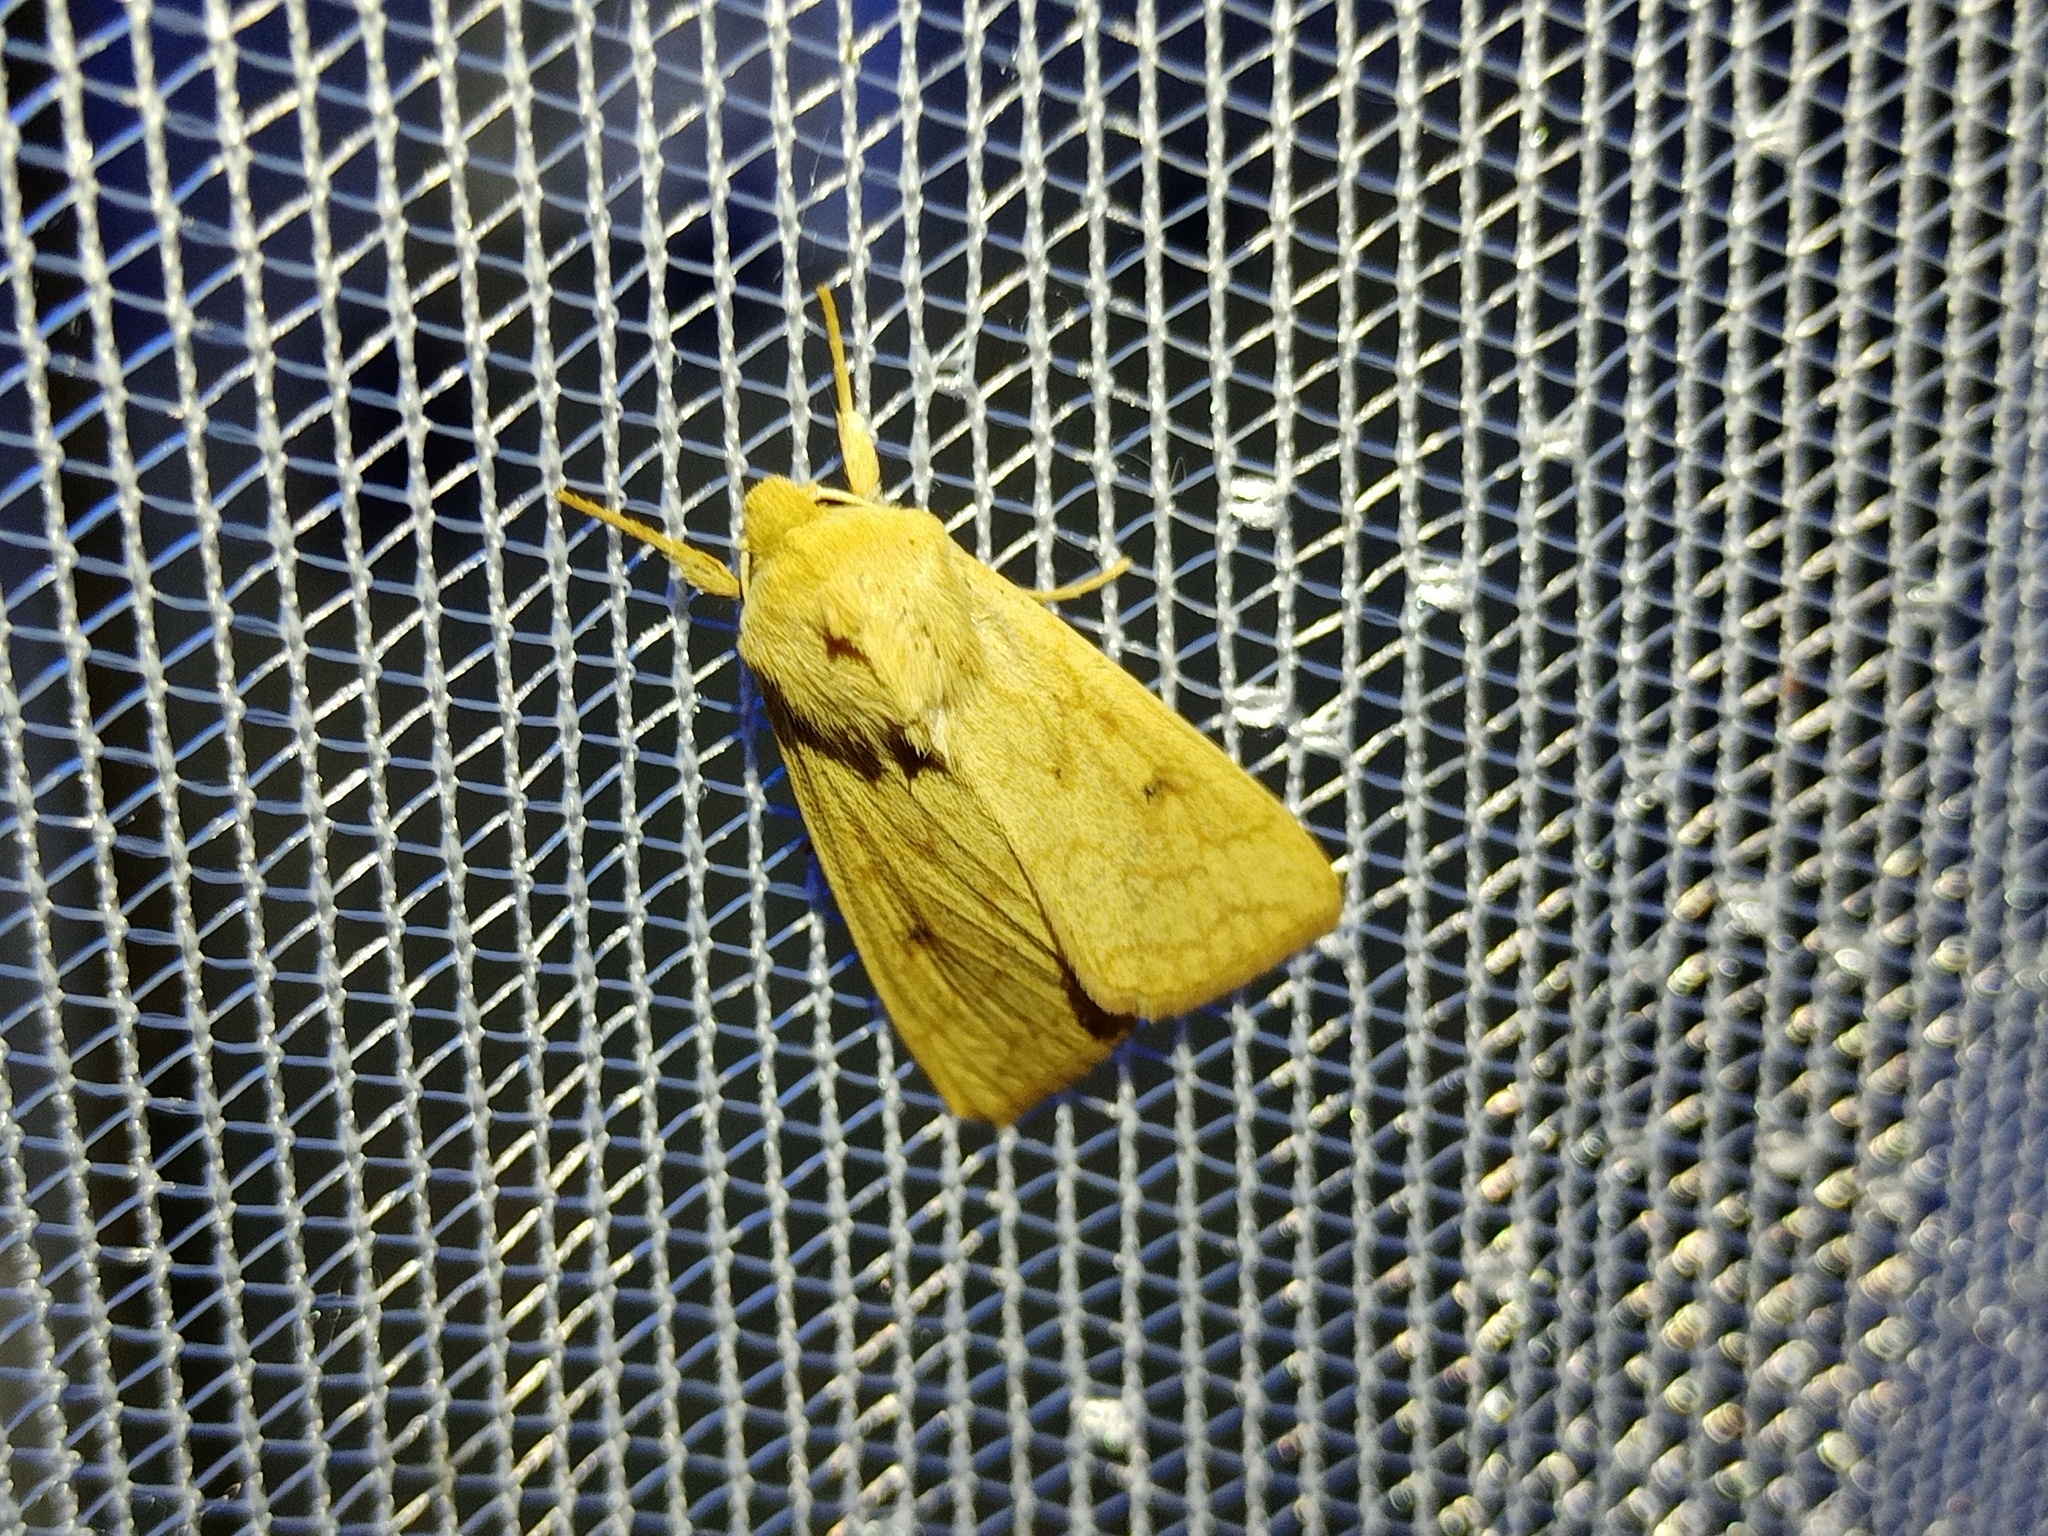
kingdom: Animalia
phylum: Arthropoda
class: Insecta
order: Lepidoptera
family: Noctuidae
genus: Mythimna
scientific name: Mythimna vitellina
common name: Delicate
